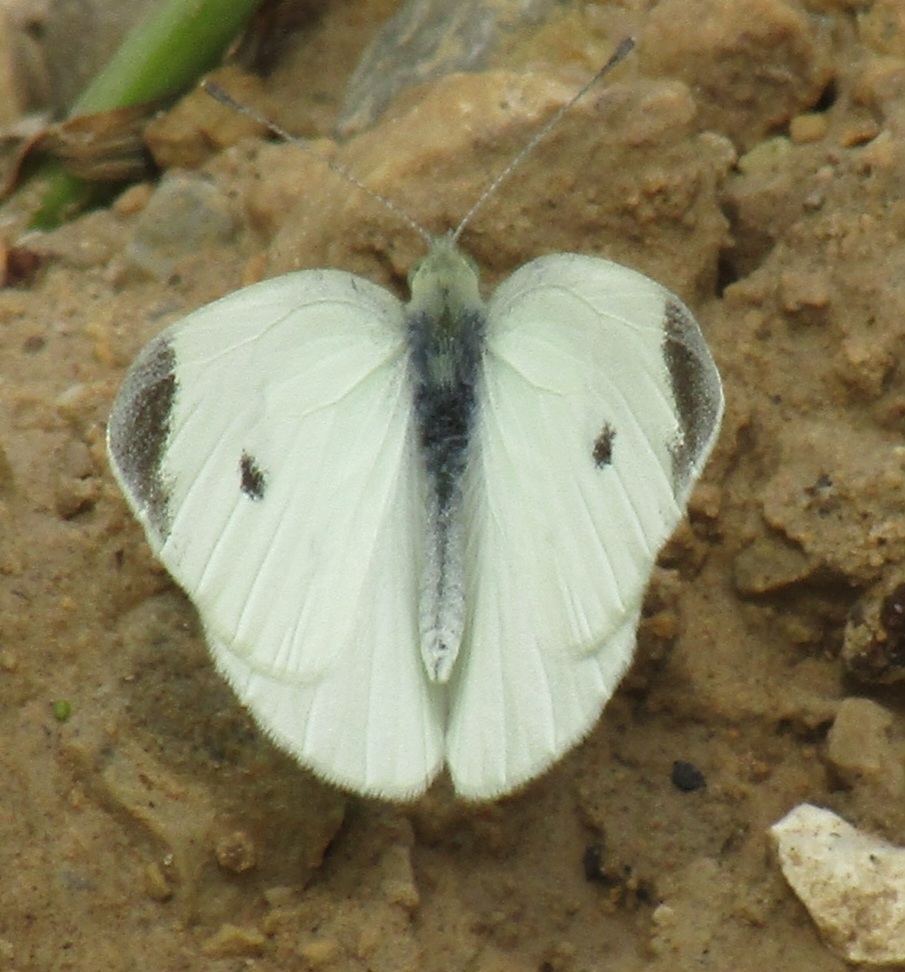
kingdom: Animalia
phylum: Arthropoda
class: Insecta
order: Lepidoptera
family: Pieridae
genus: Pieris
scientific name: Pieris rapae
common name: Small white
